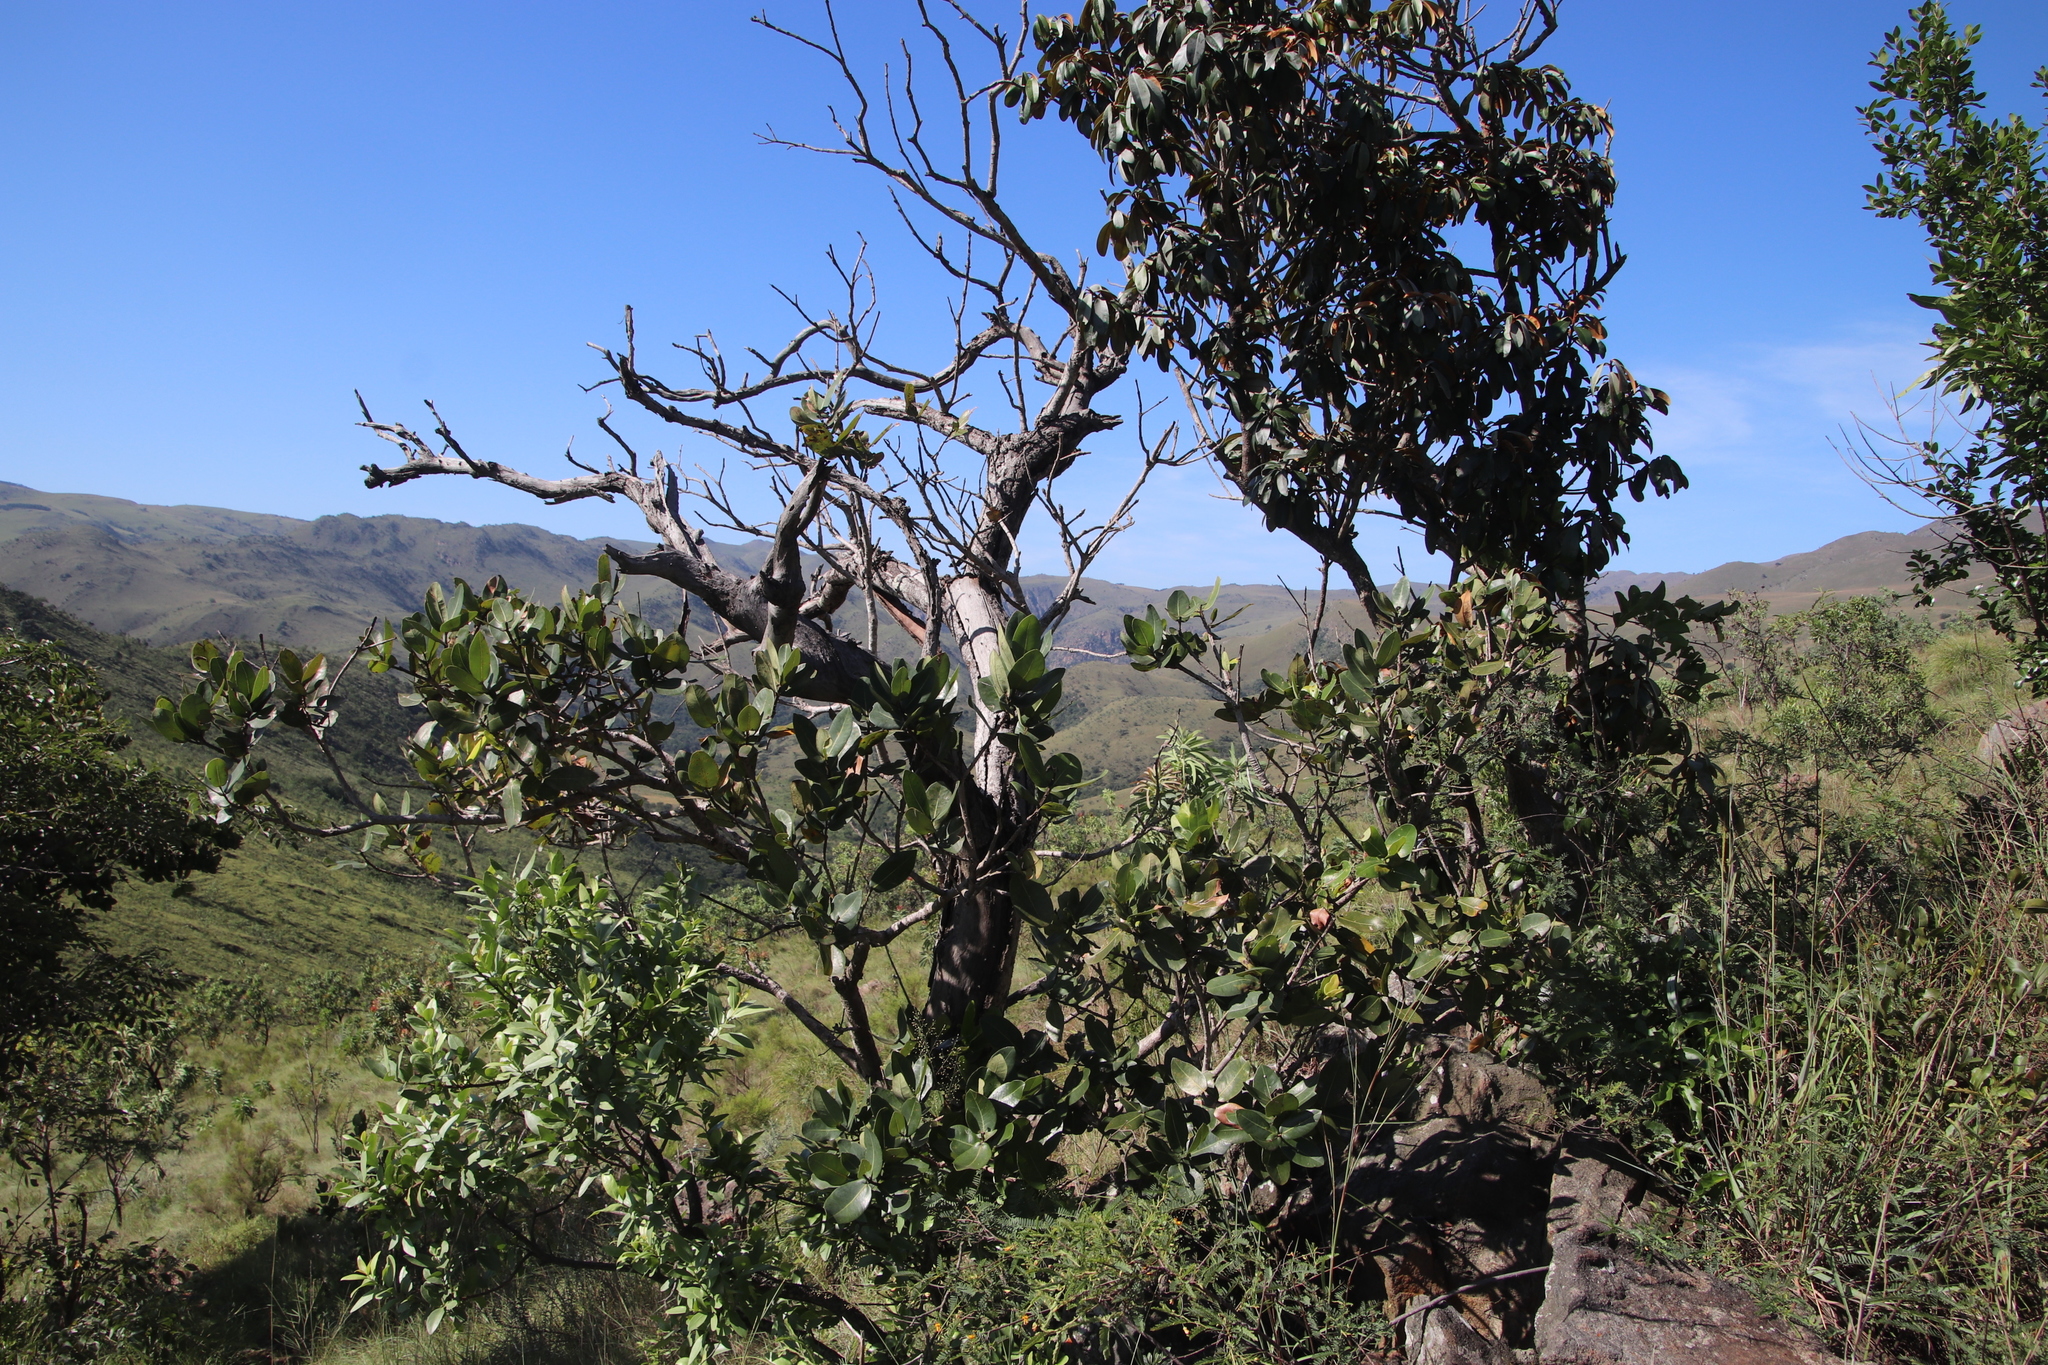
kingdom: Plantae
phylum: Tracheophyta
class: Magnoliopsida
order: Myrtales
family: Myrtaceae
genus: Syzygium
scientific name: Syzygium cordatum
